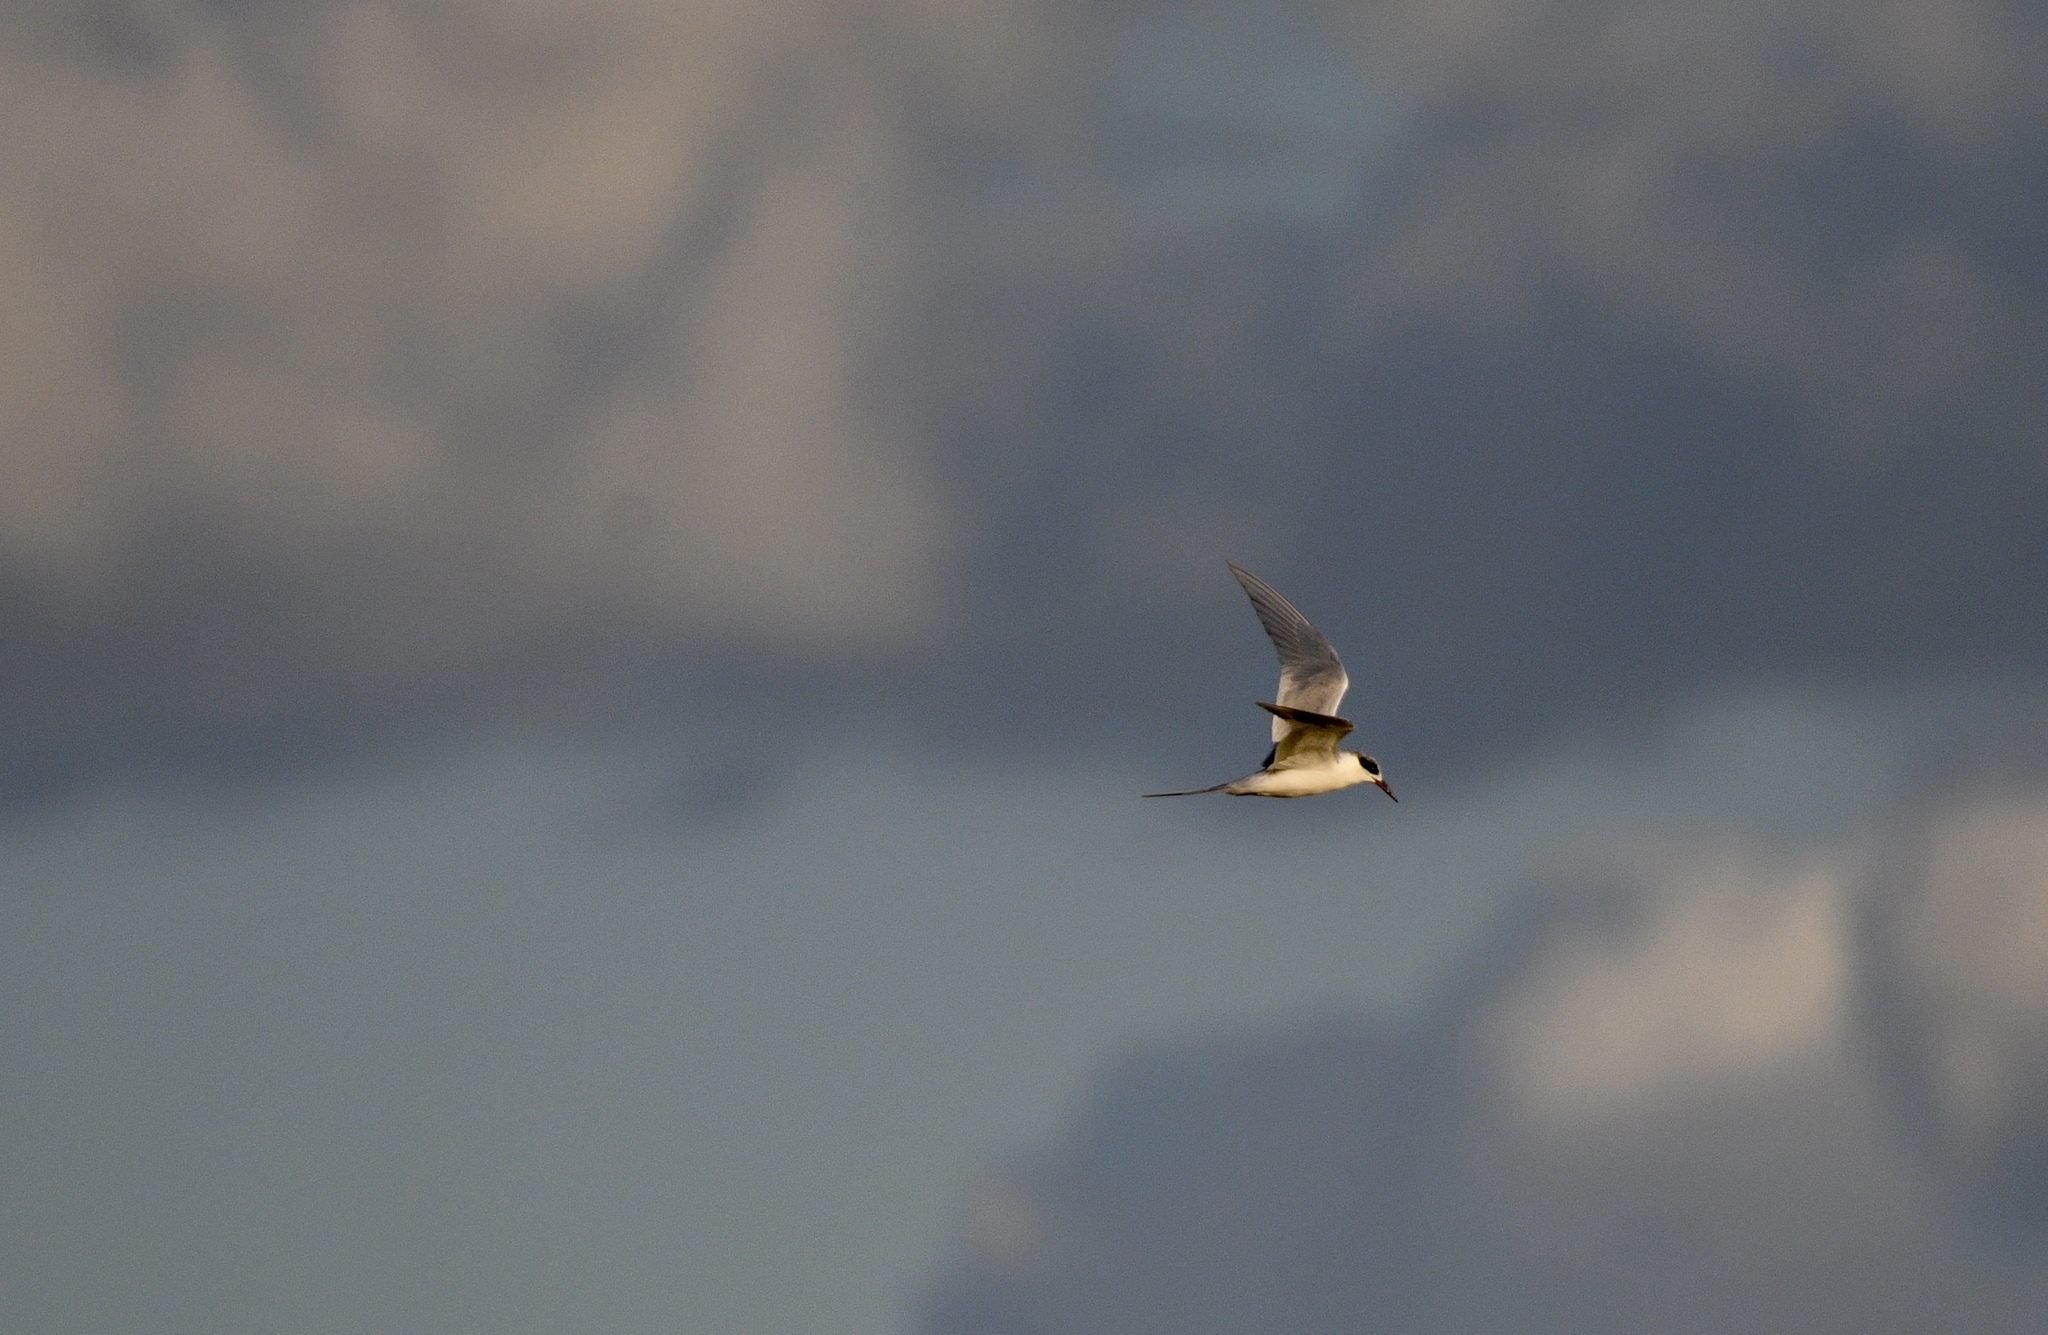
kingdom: Animalia
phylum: Chordata
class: Aves
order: Charadriiformes
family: Laridae
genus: Sterna
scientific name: Sterna forsteri
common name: Forster's tern
